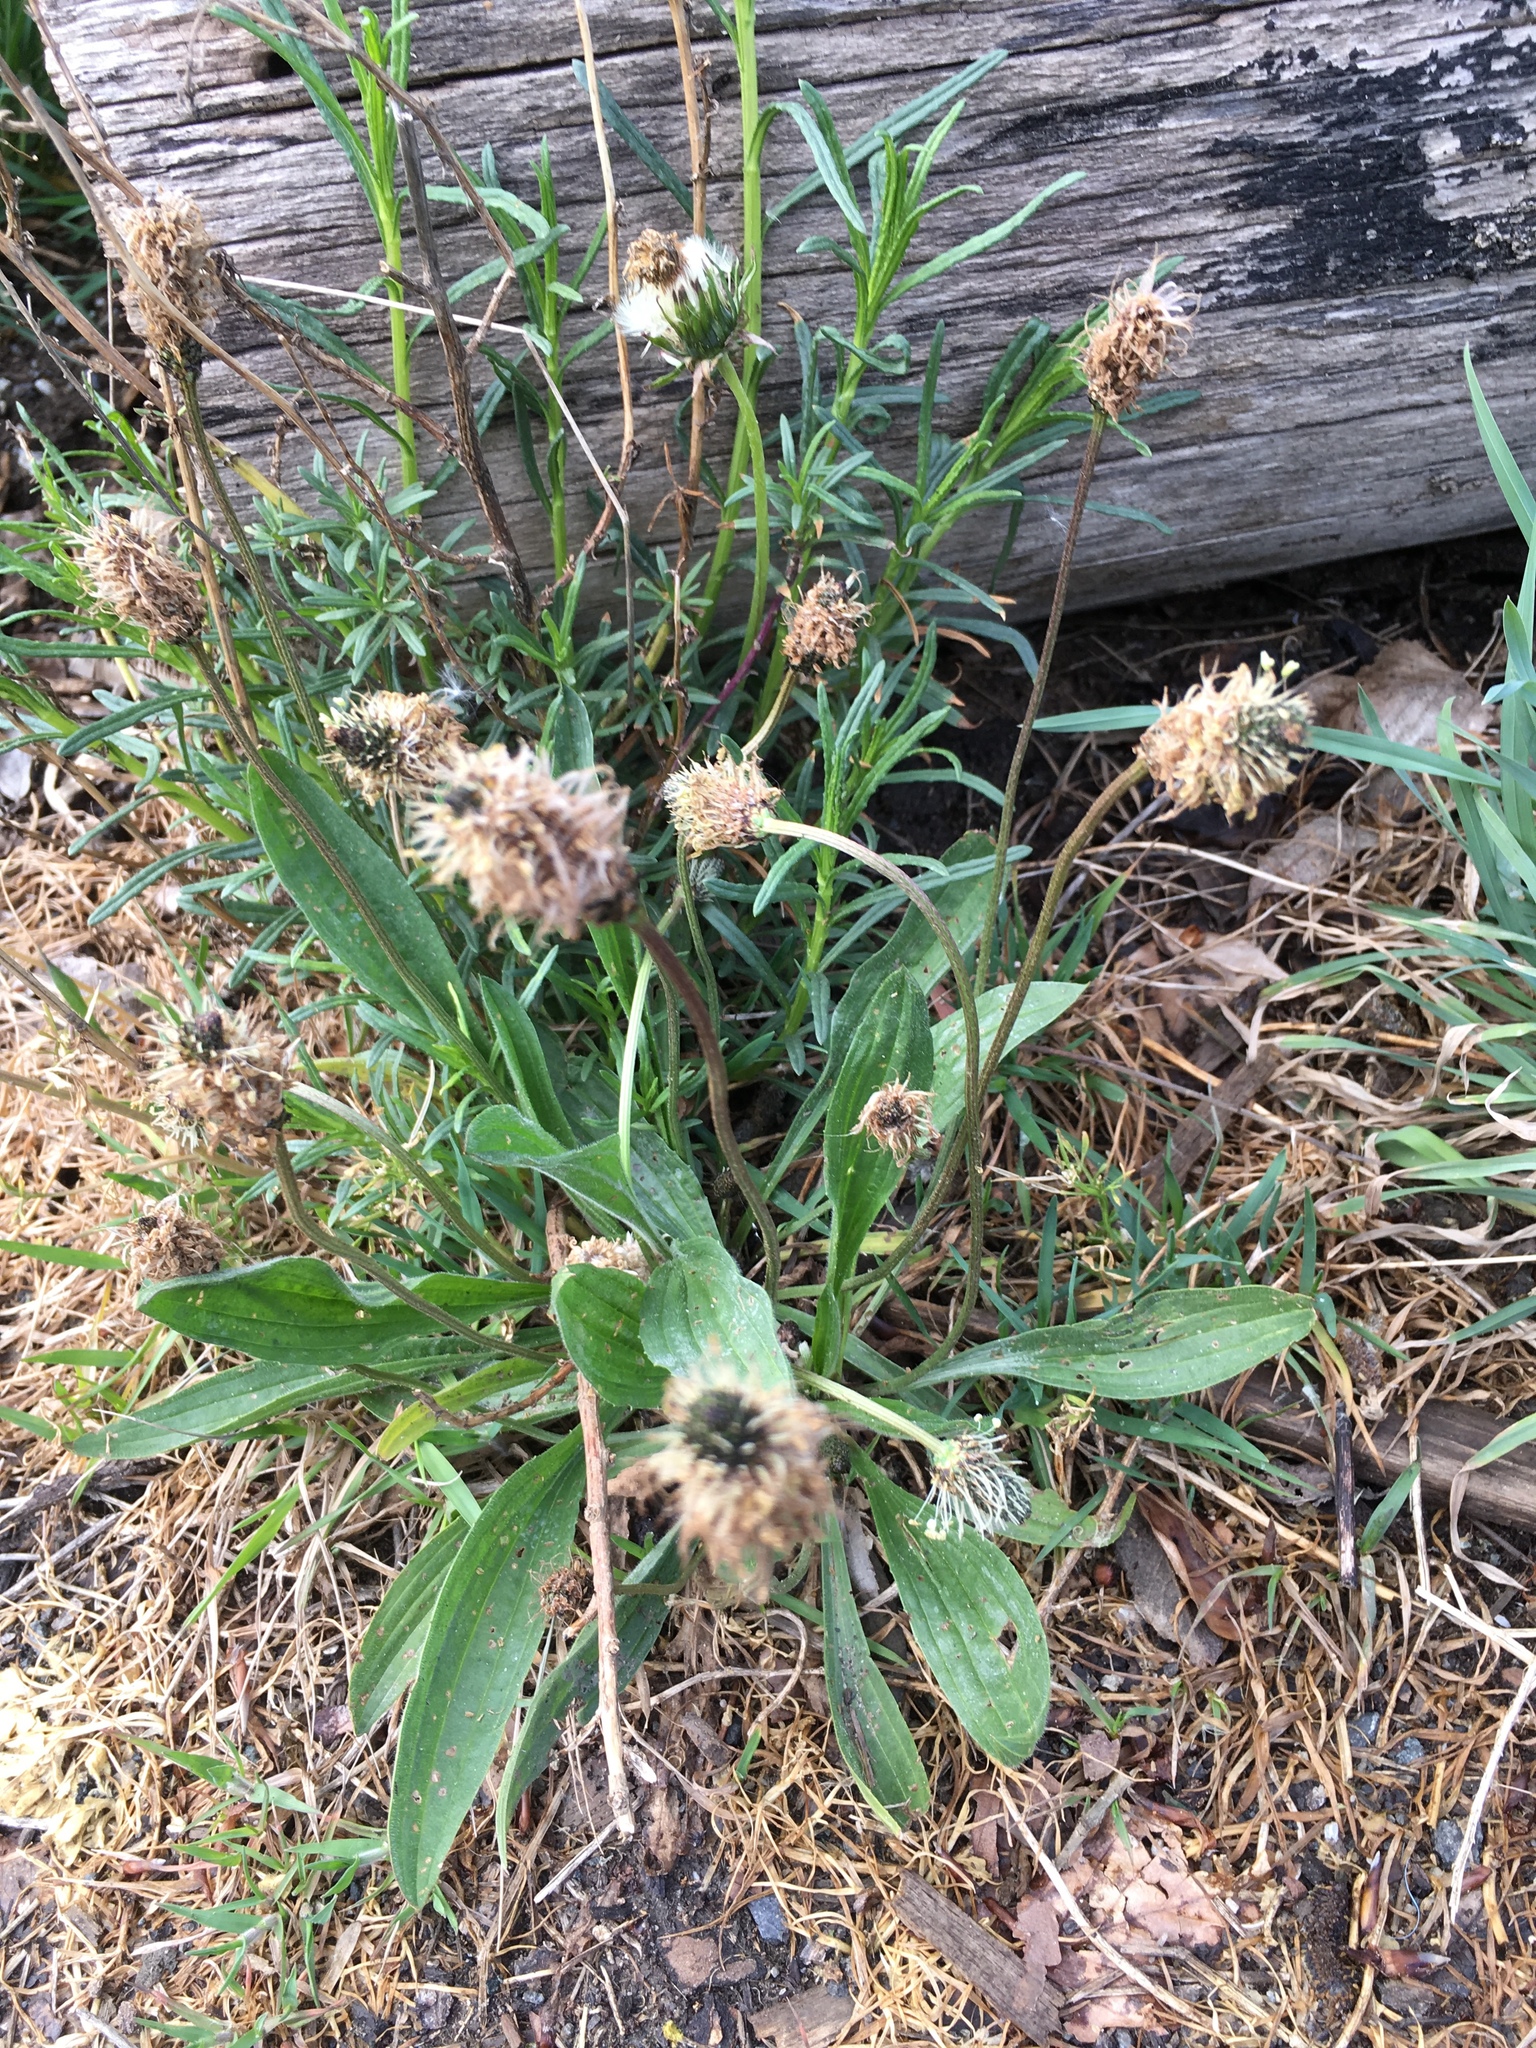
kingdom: Plantae
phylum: Tracheophyta
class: Magnoliopsida
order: Lamiales
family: Plantaginaceae
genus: Plantago
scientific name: Plantago lanceolata
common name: Ribwort plantain
